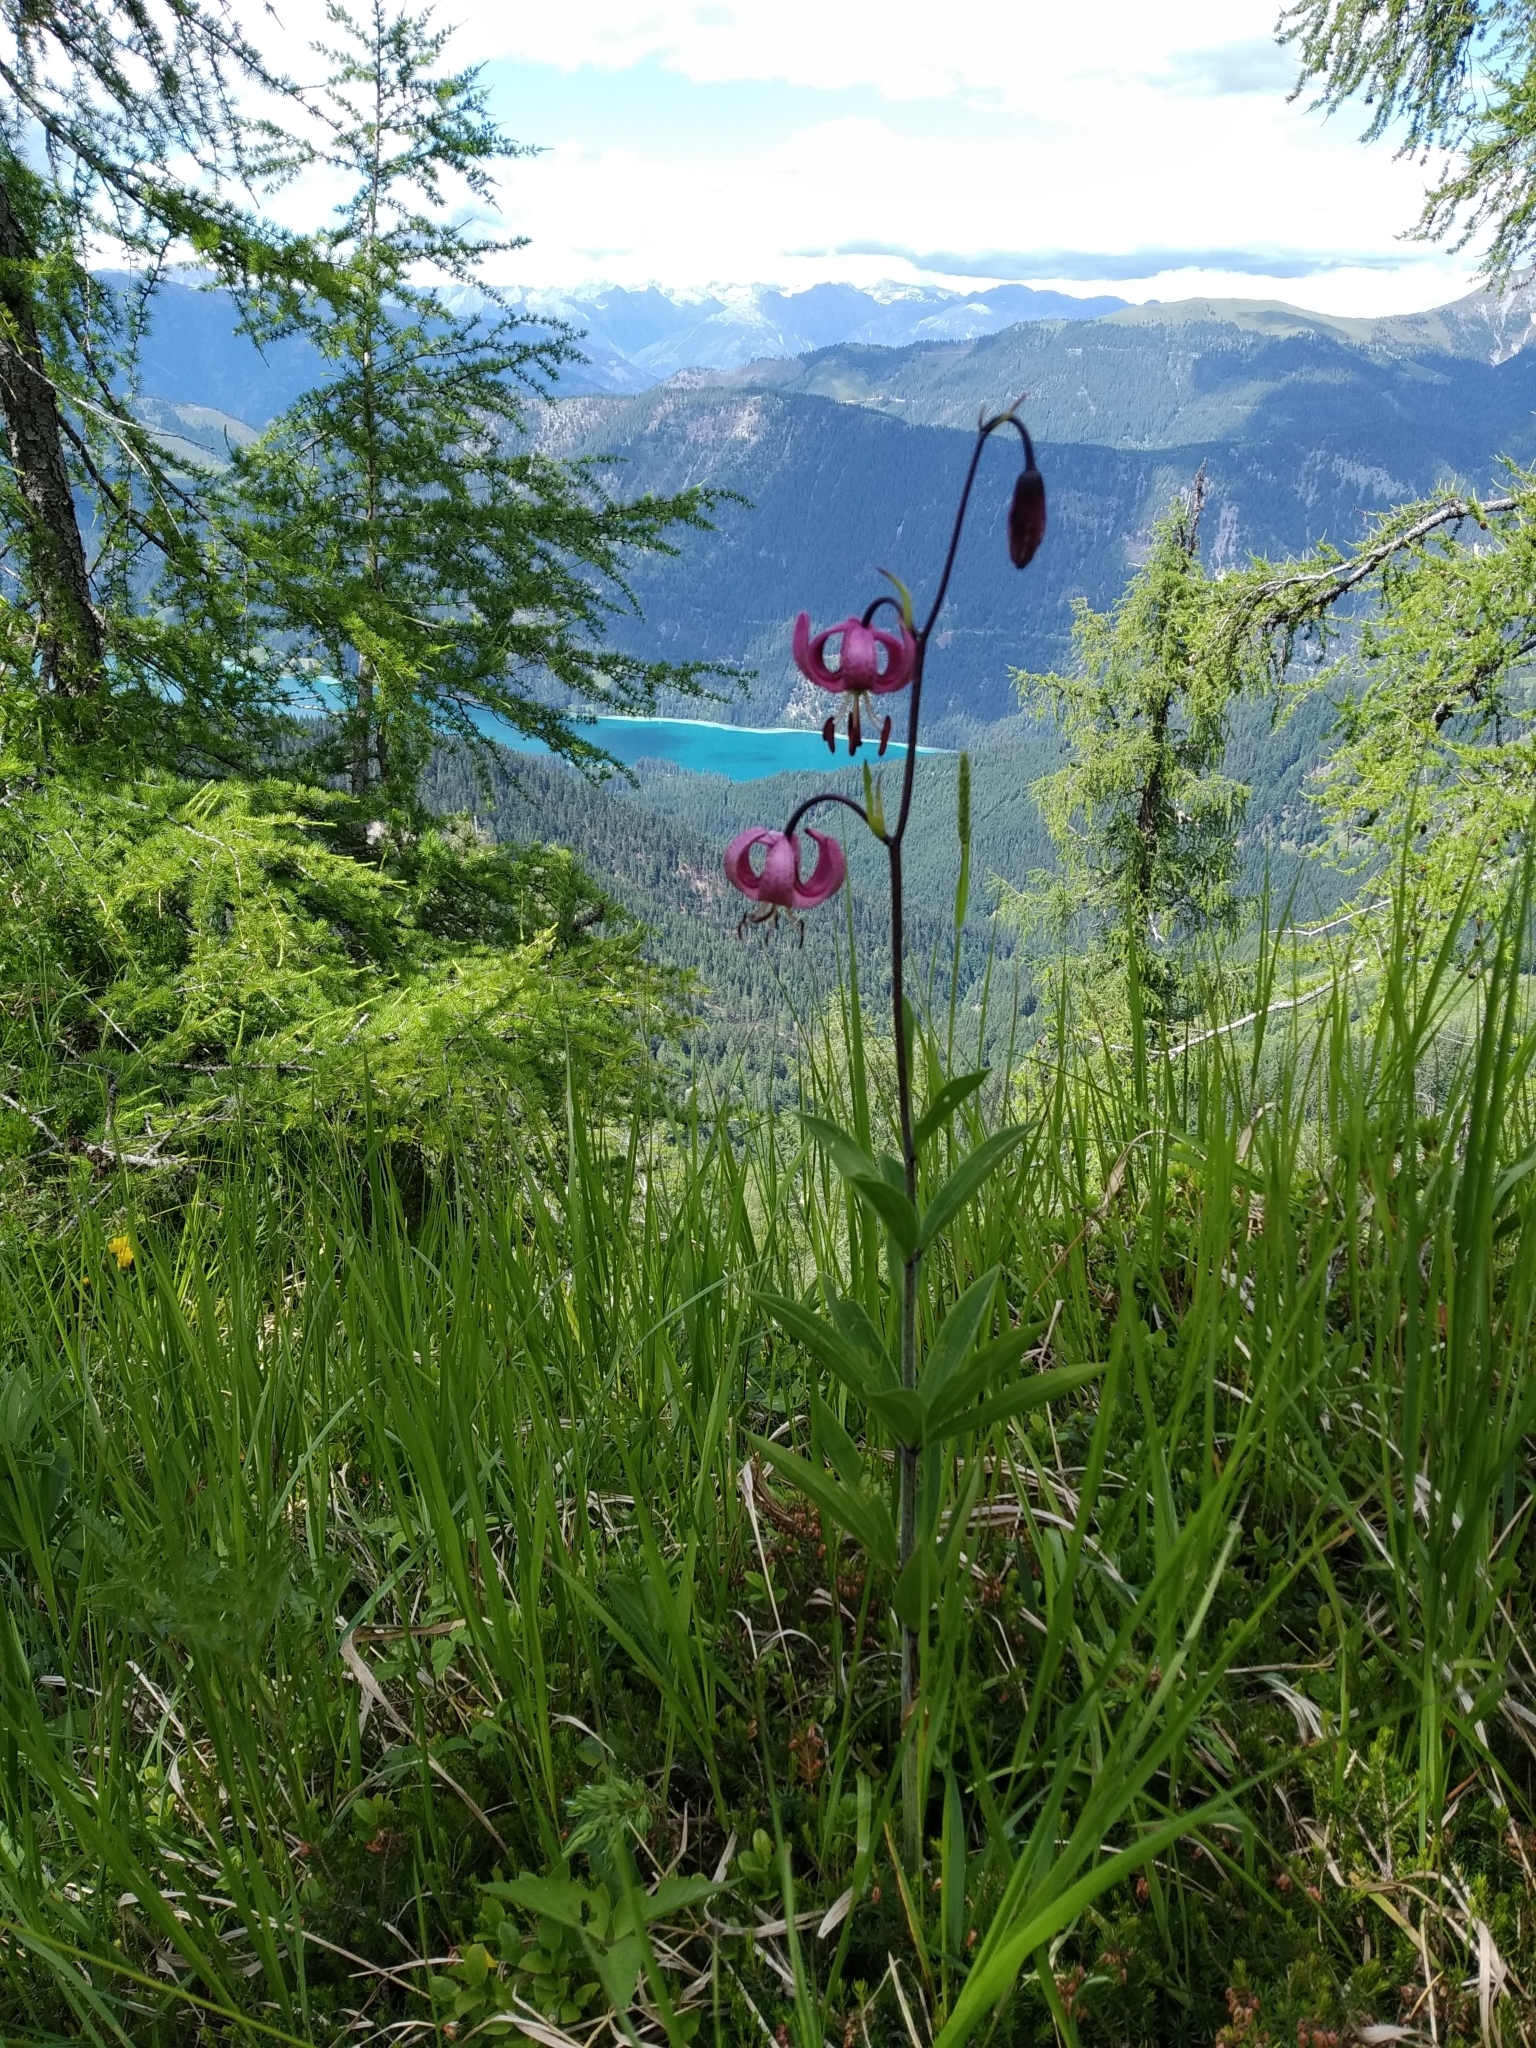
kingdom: Plantae
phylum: Tracheophyta
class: Liliopsida
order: Liliales
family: Liliaceae
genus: Lilium
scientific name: Lilium martagon
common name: Martagon lily
